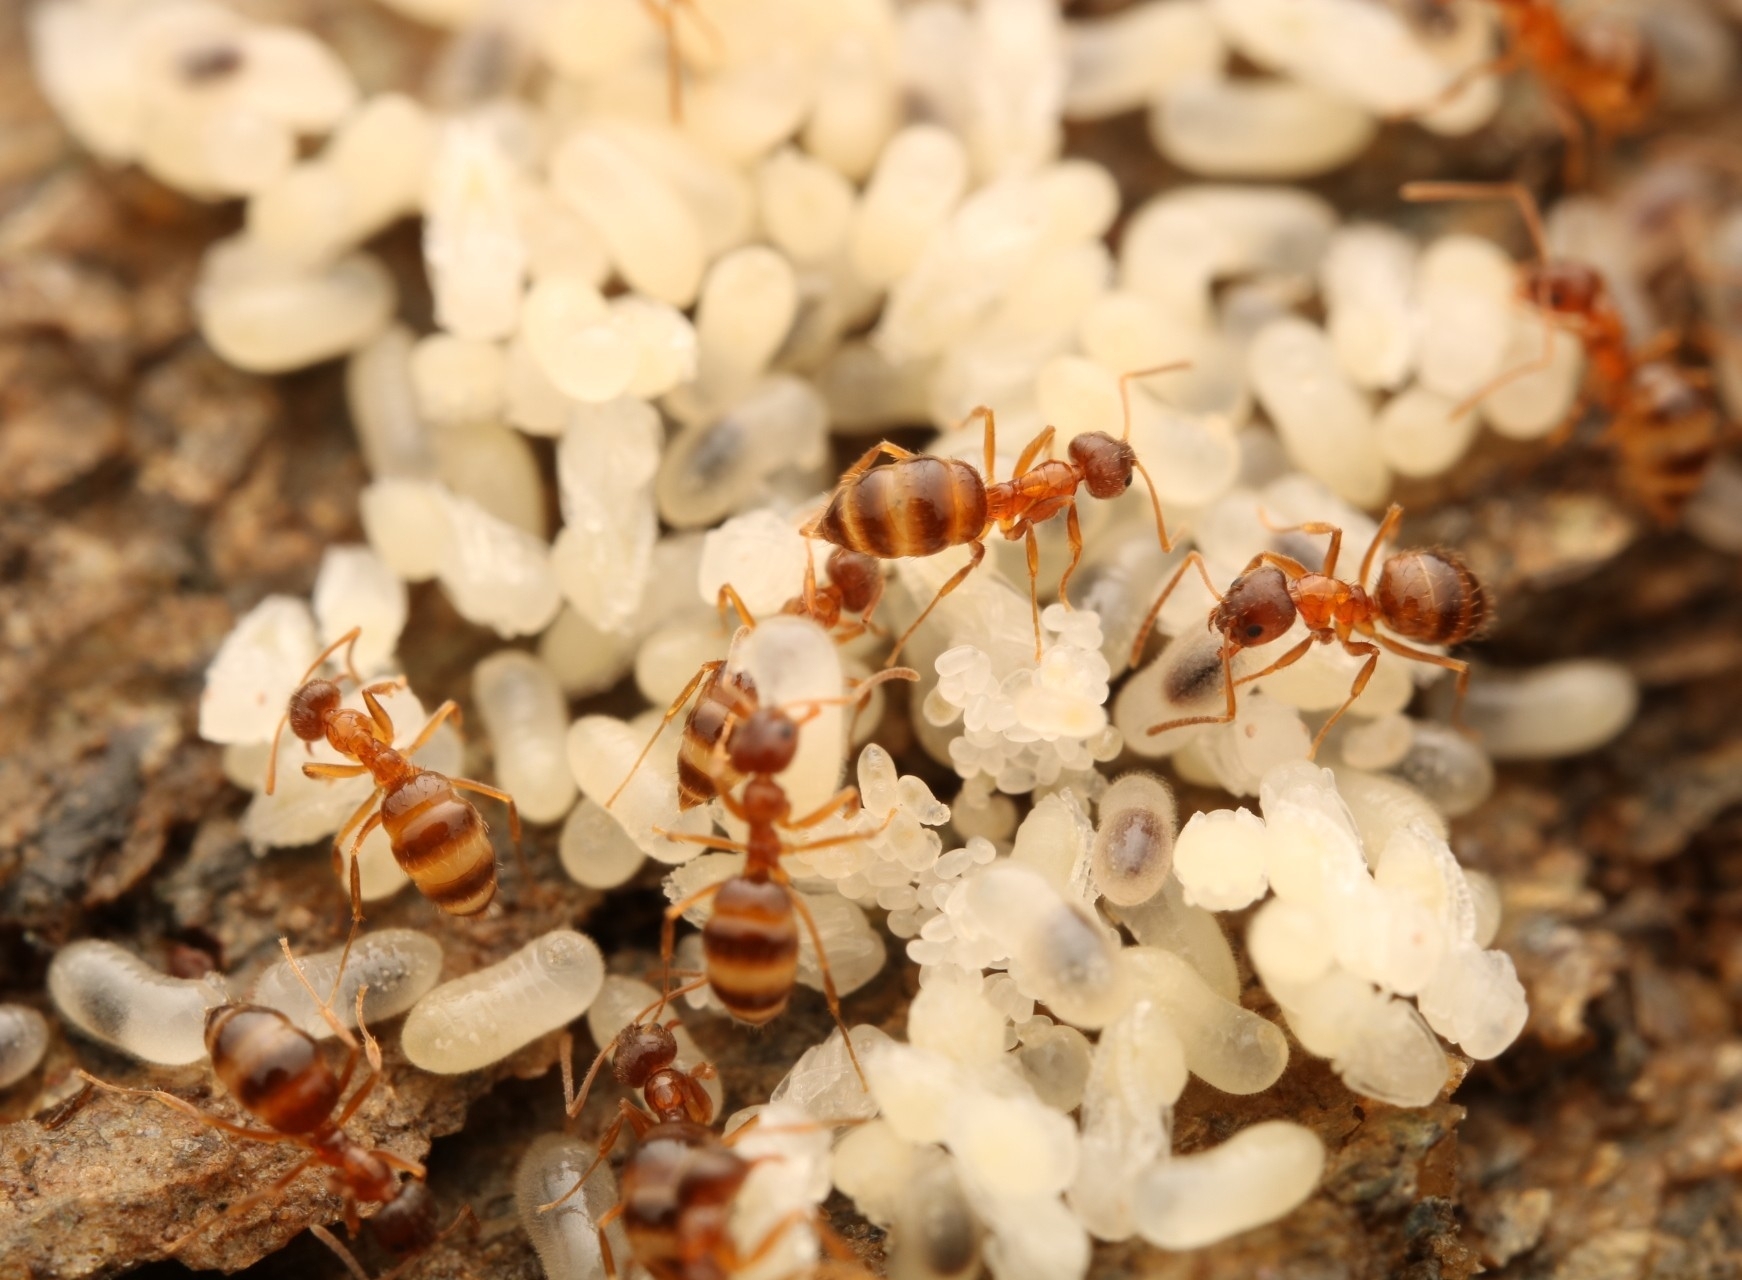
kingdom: Animalia
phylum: Arthropoda
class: Insecta
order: Hymenoptera
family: Formicidae
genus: Paratrechina
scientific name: Paratrechina flavipes
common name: Eastern asian formicine ant
